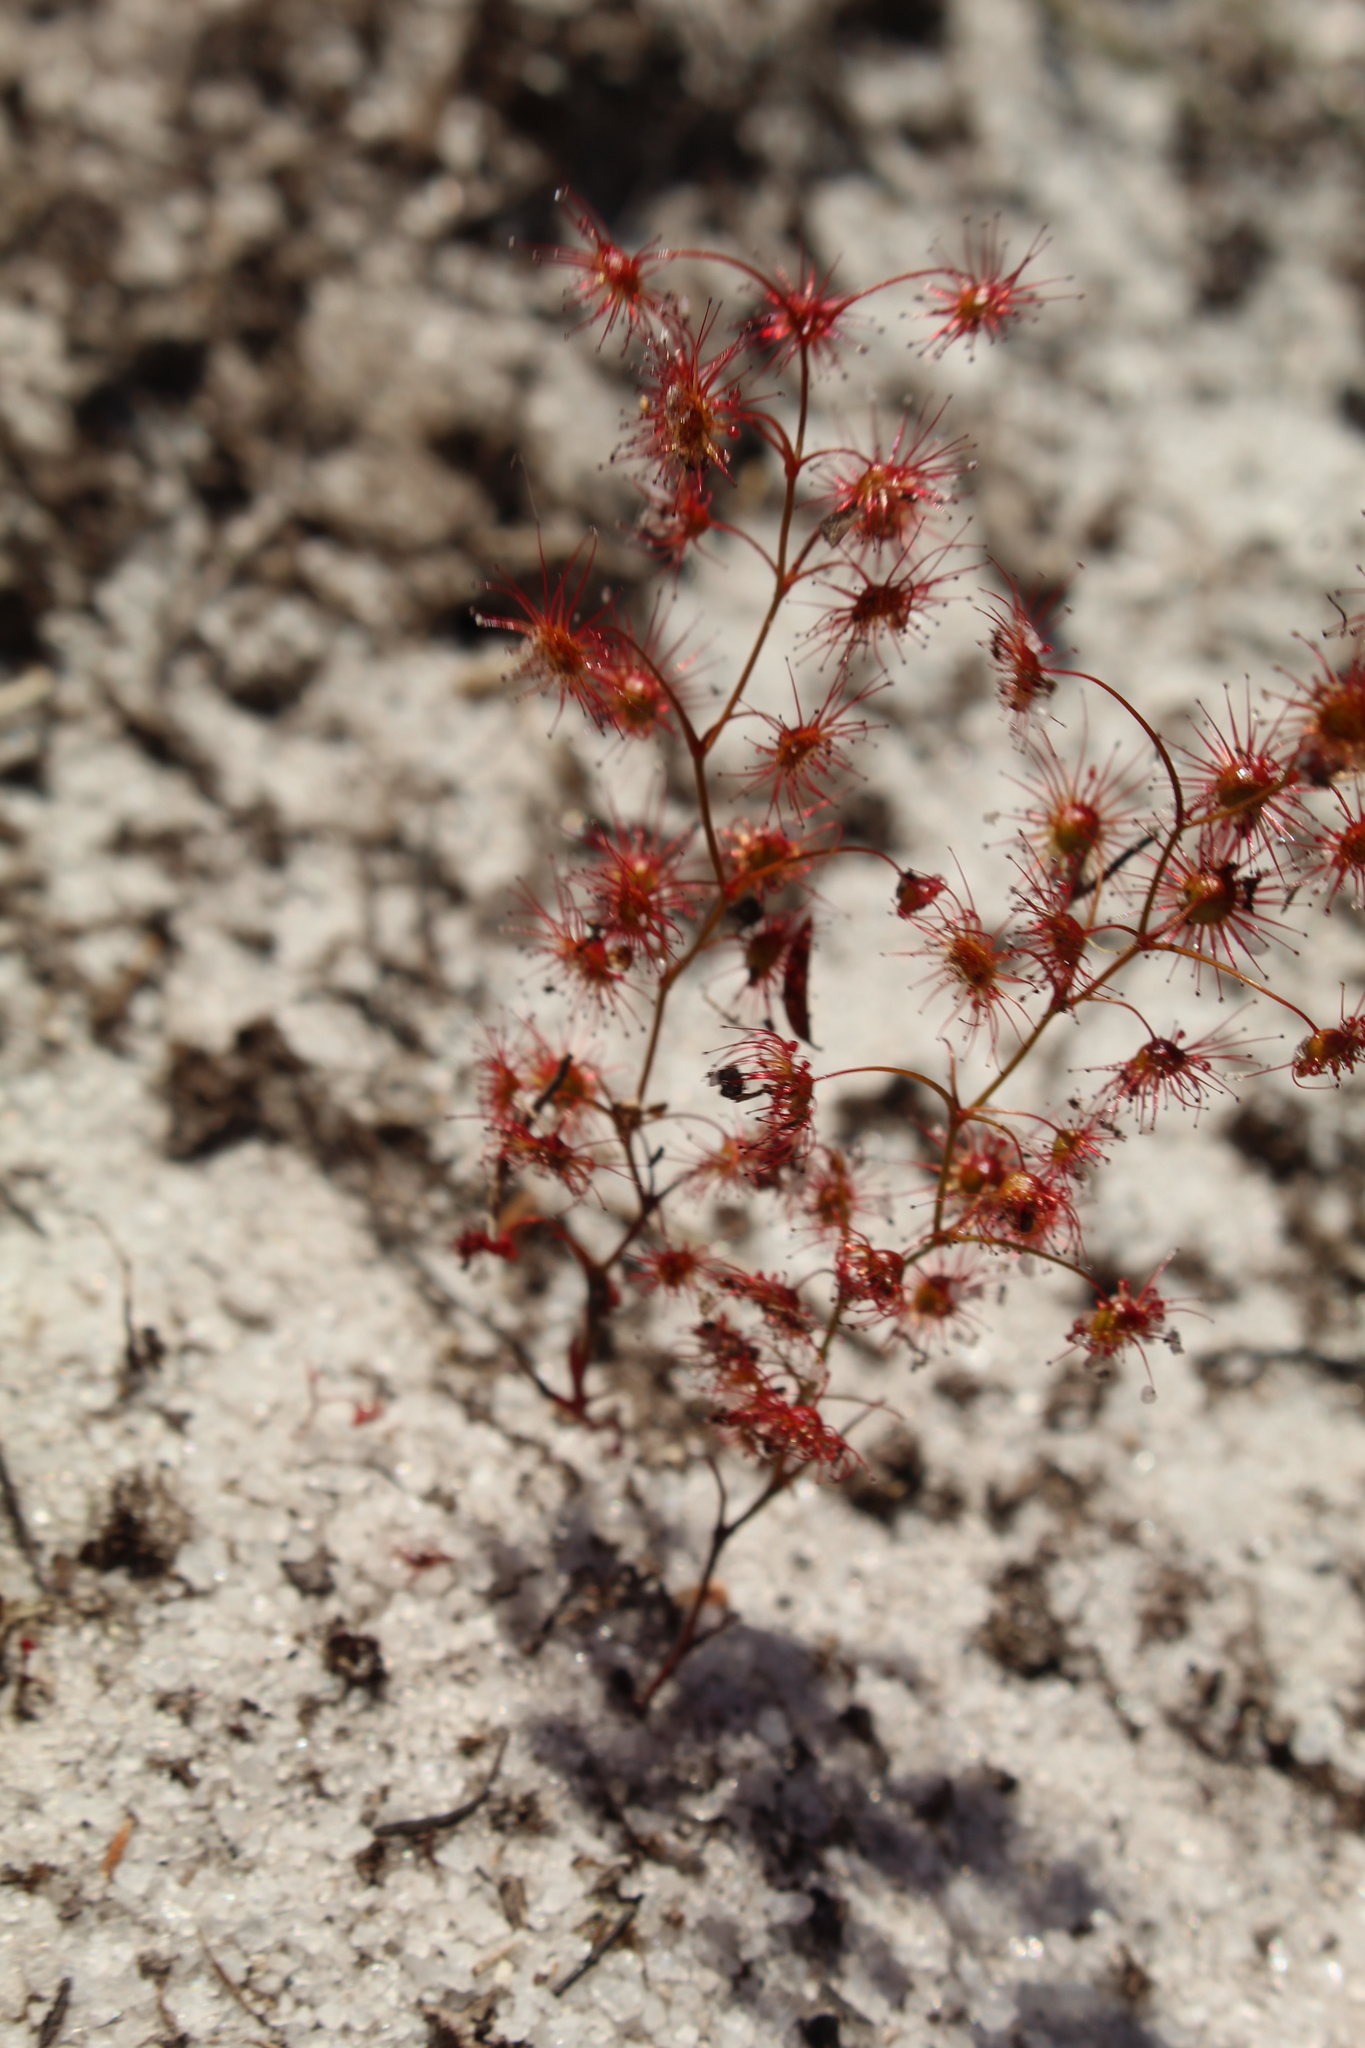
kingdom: Plantae
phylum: Tracheophyta
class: Magnoliopsida
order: Caryophyllales
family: Droseraceae
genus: Drosera
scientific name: Drosera
